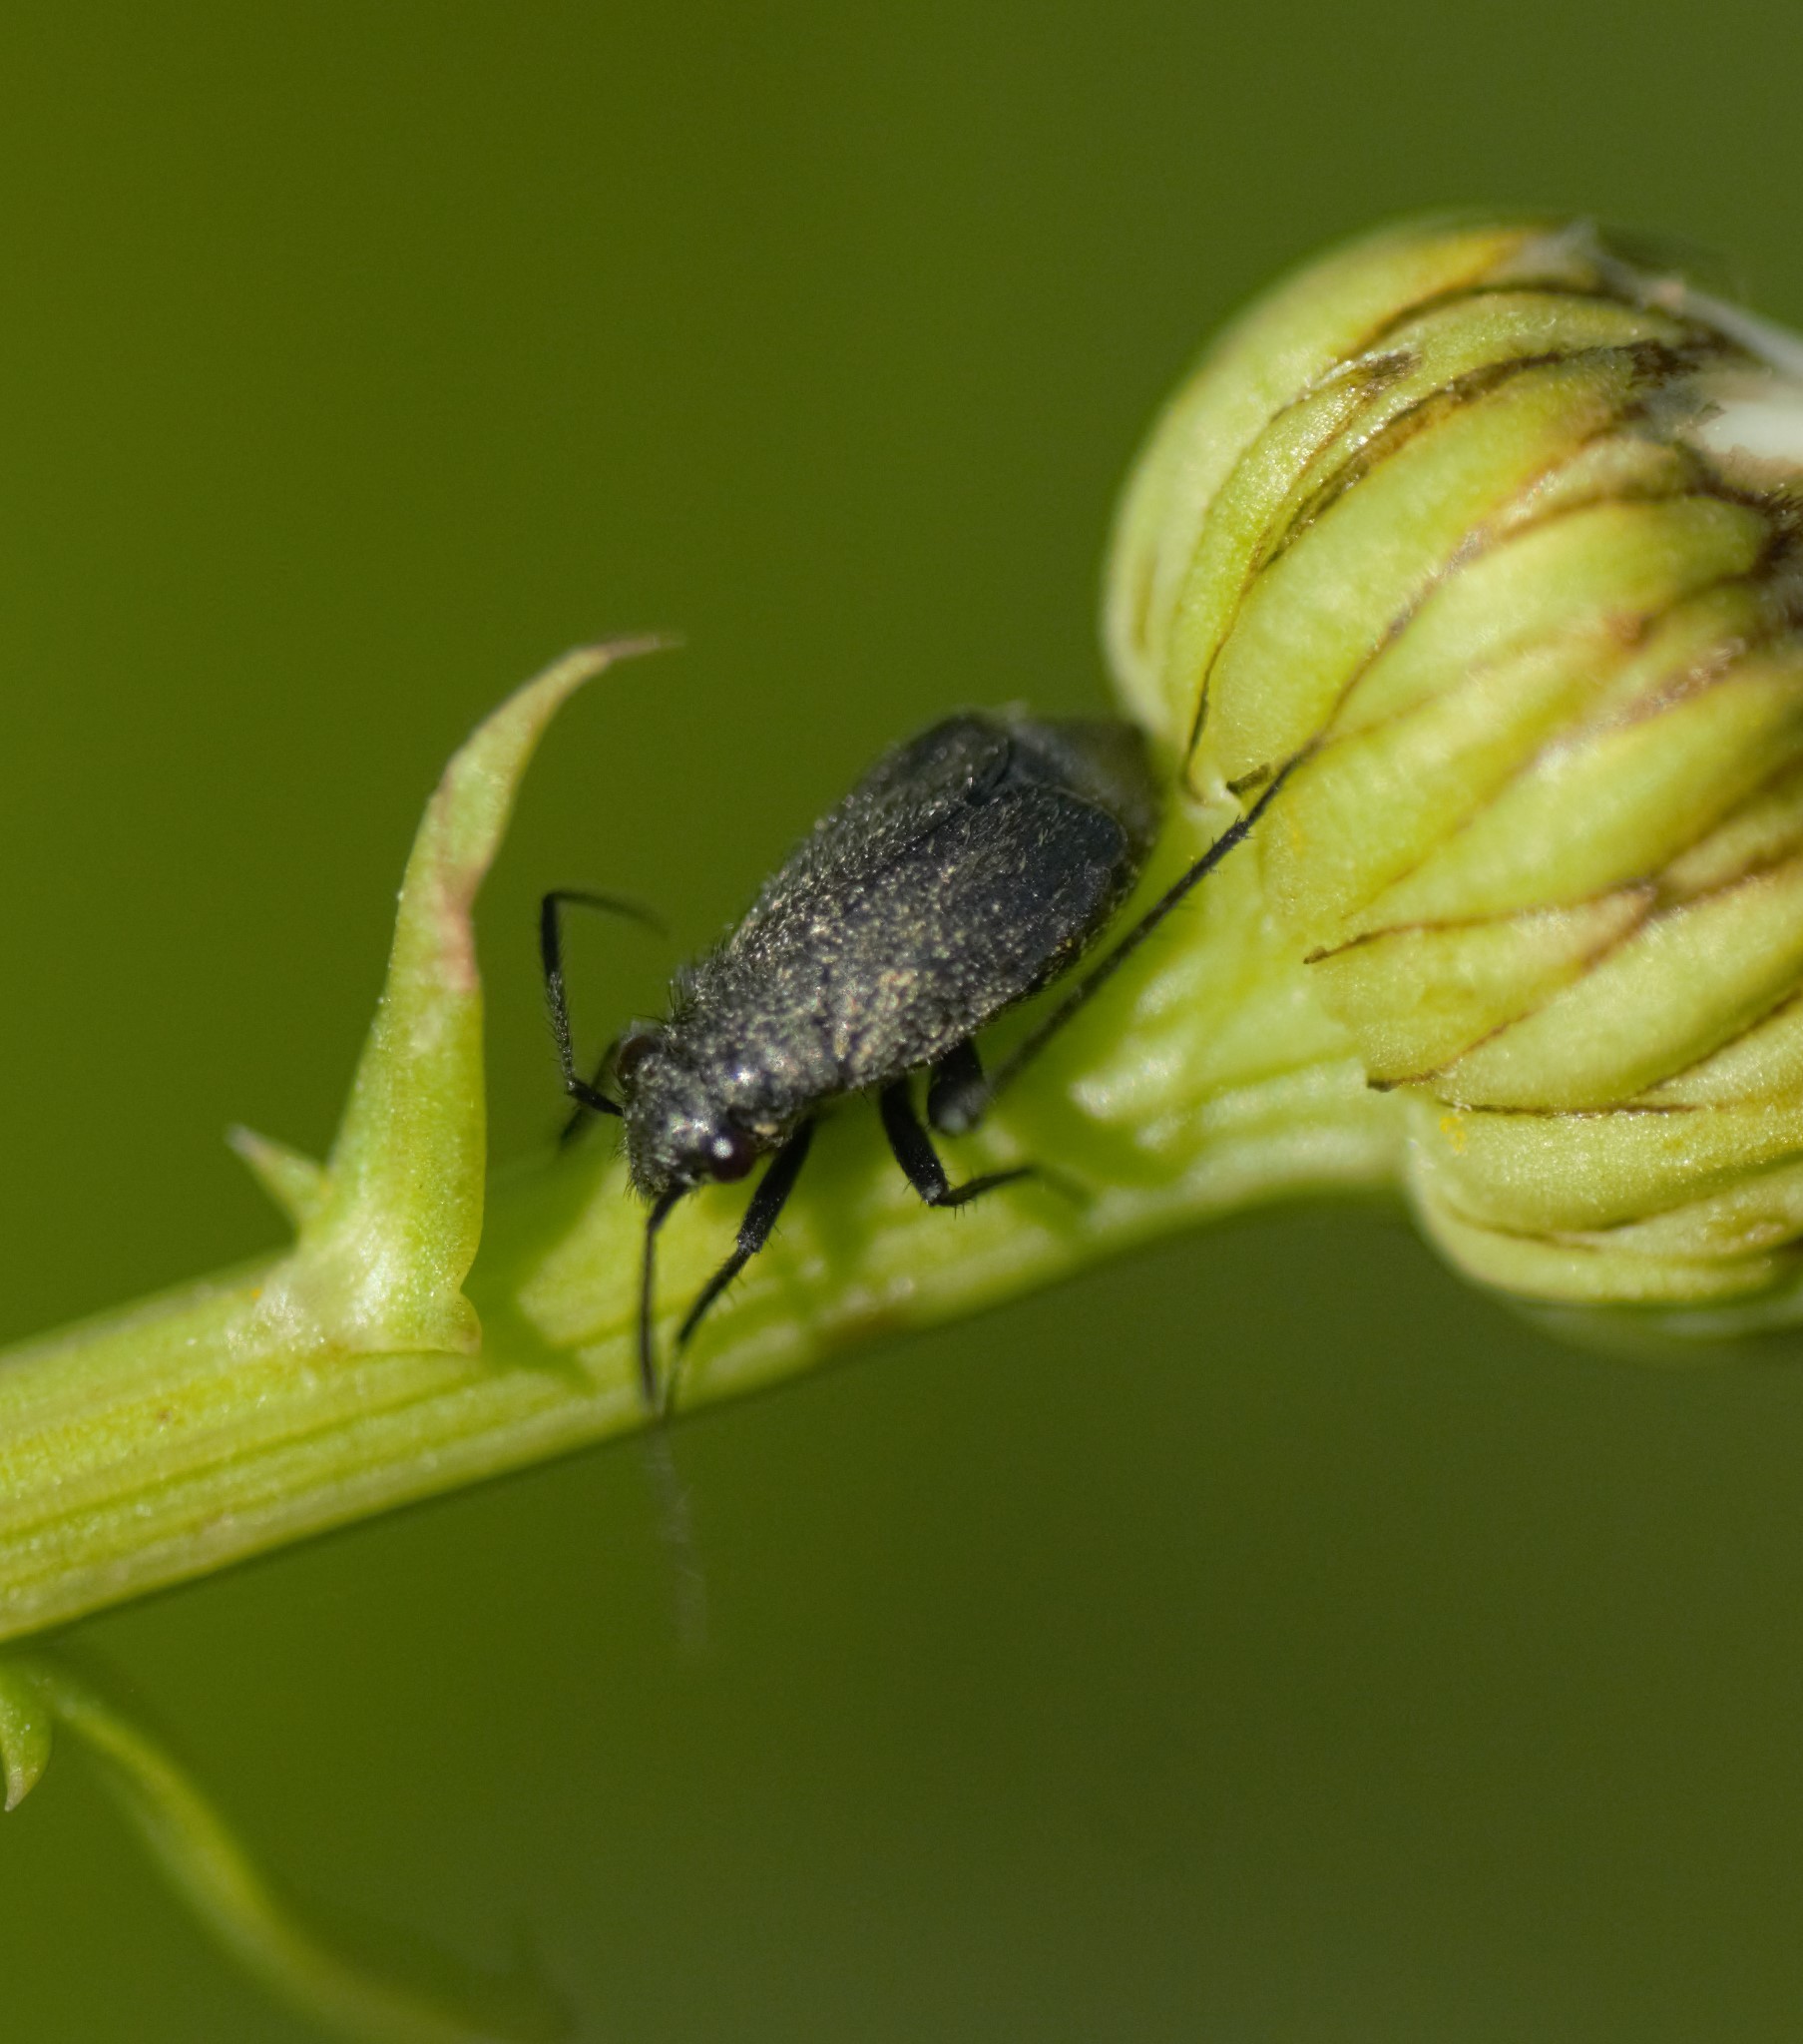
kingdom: Animalia
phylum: Arthropoda
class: Insecta
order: Hemiptera
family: Miridae
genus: Orthocephalus
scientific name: Orthocephalus coriaceus
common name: Plant bug
